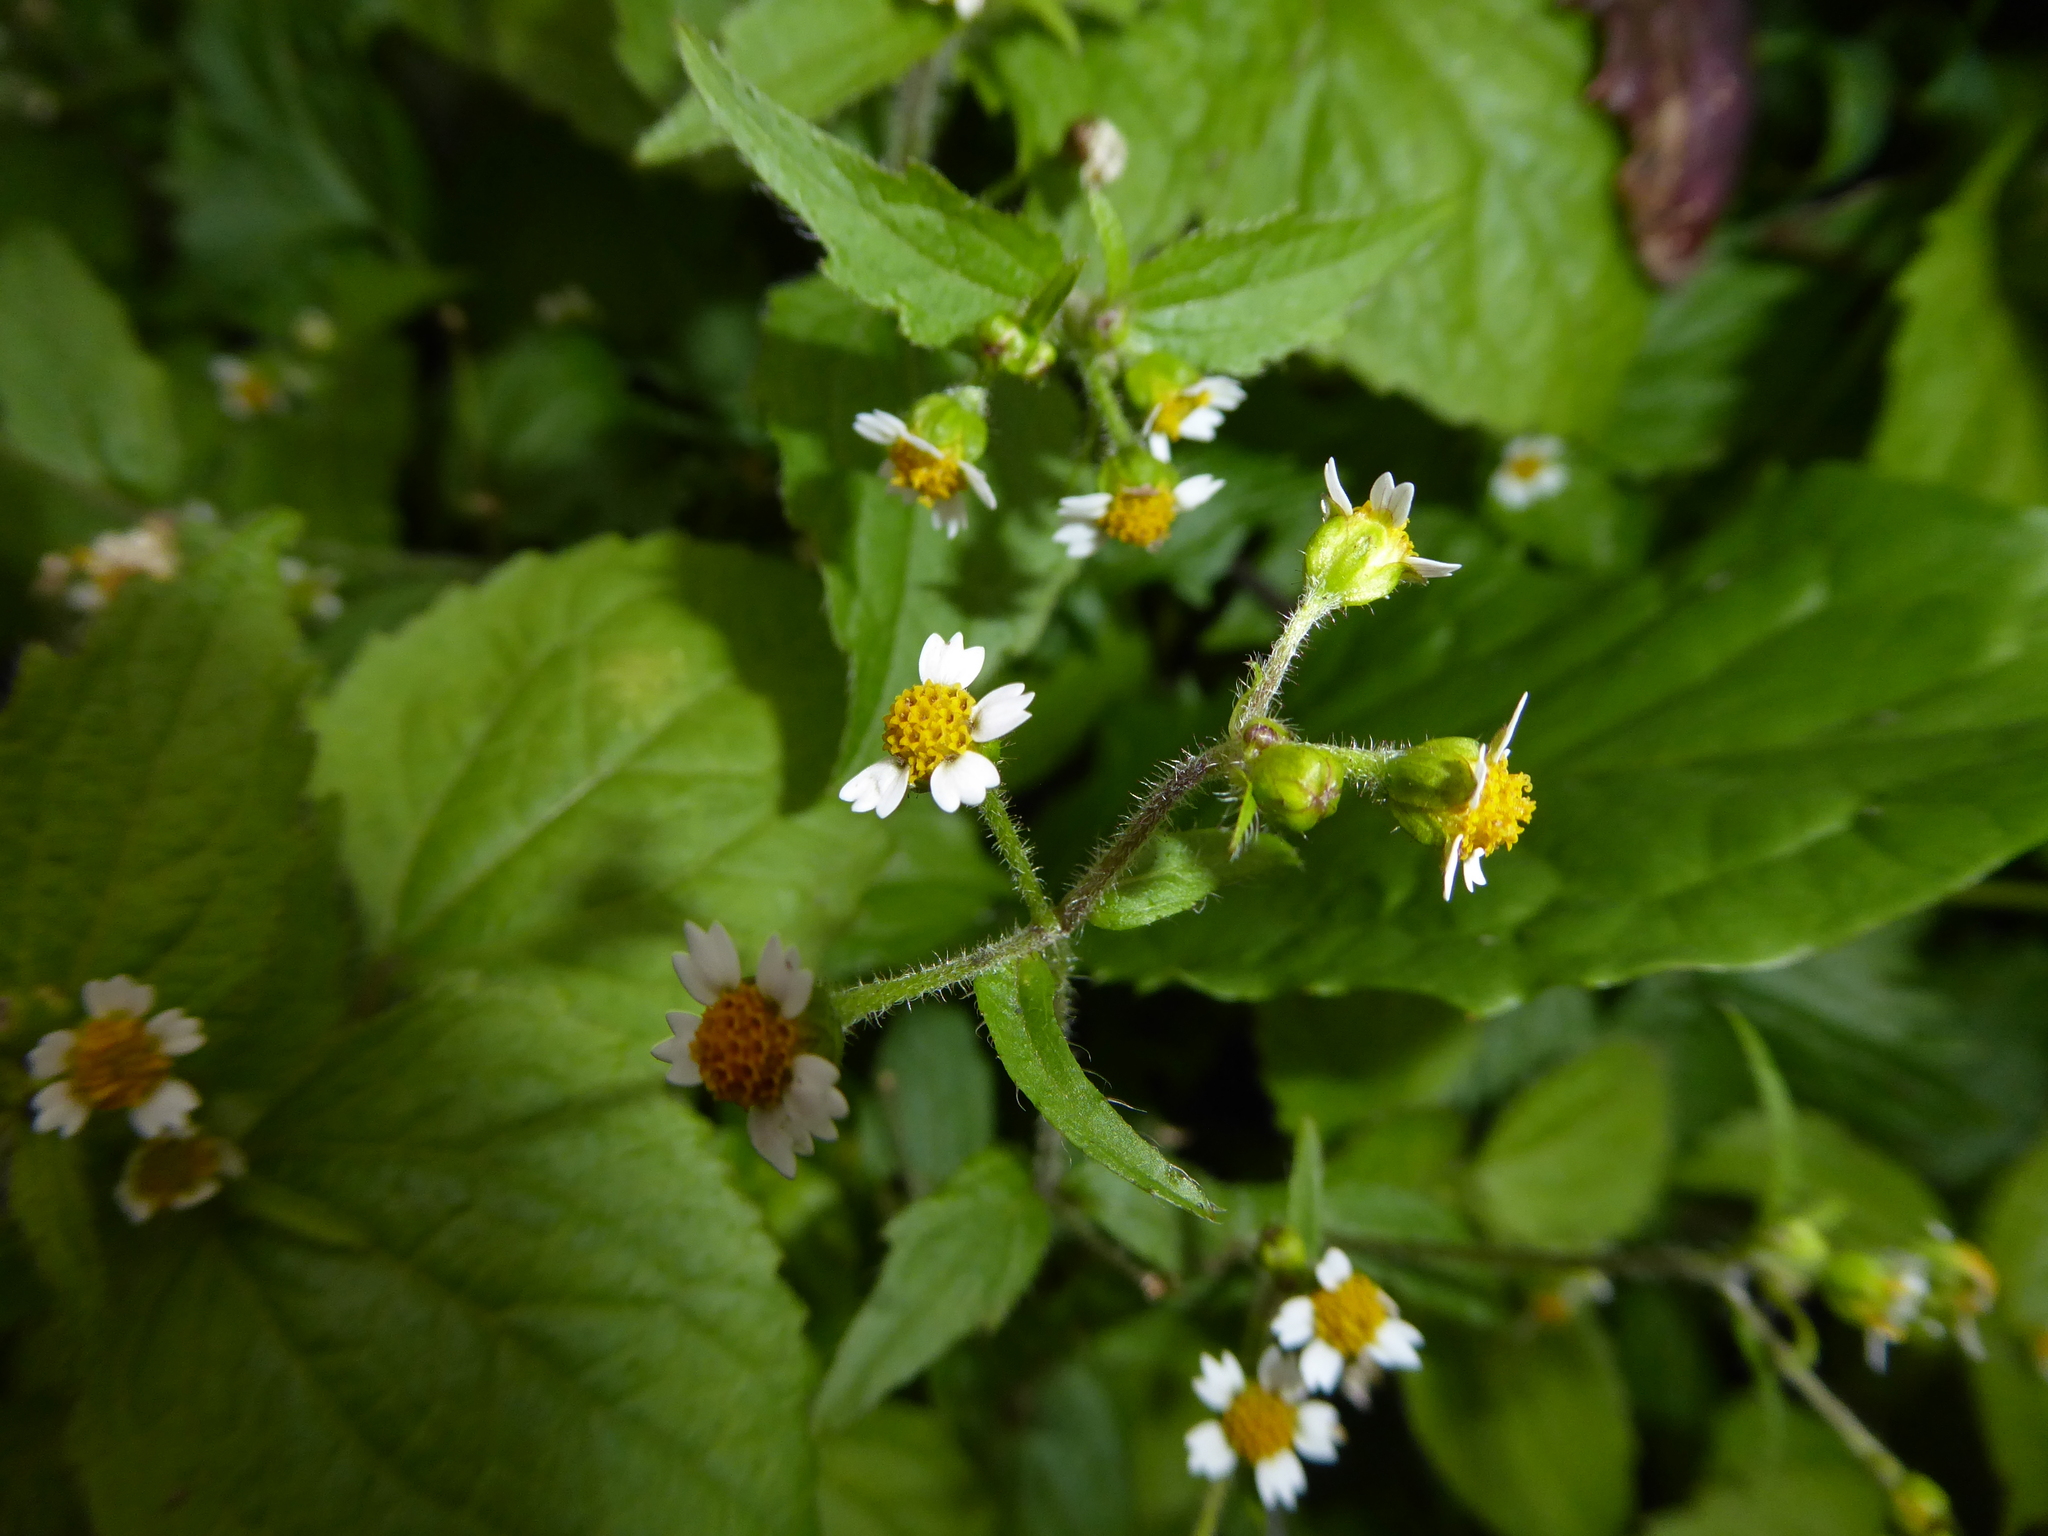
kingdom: Plantae
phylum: Tracheophyta
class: Magnoliopsida
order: Asterales
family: Asteraceae
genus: Galinsoga
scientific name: Galinsoga quadriradiata
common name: Shaggy soldier
